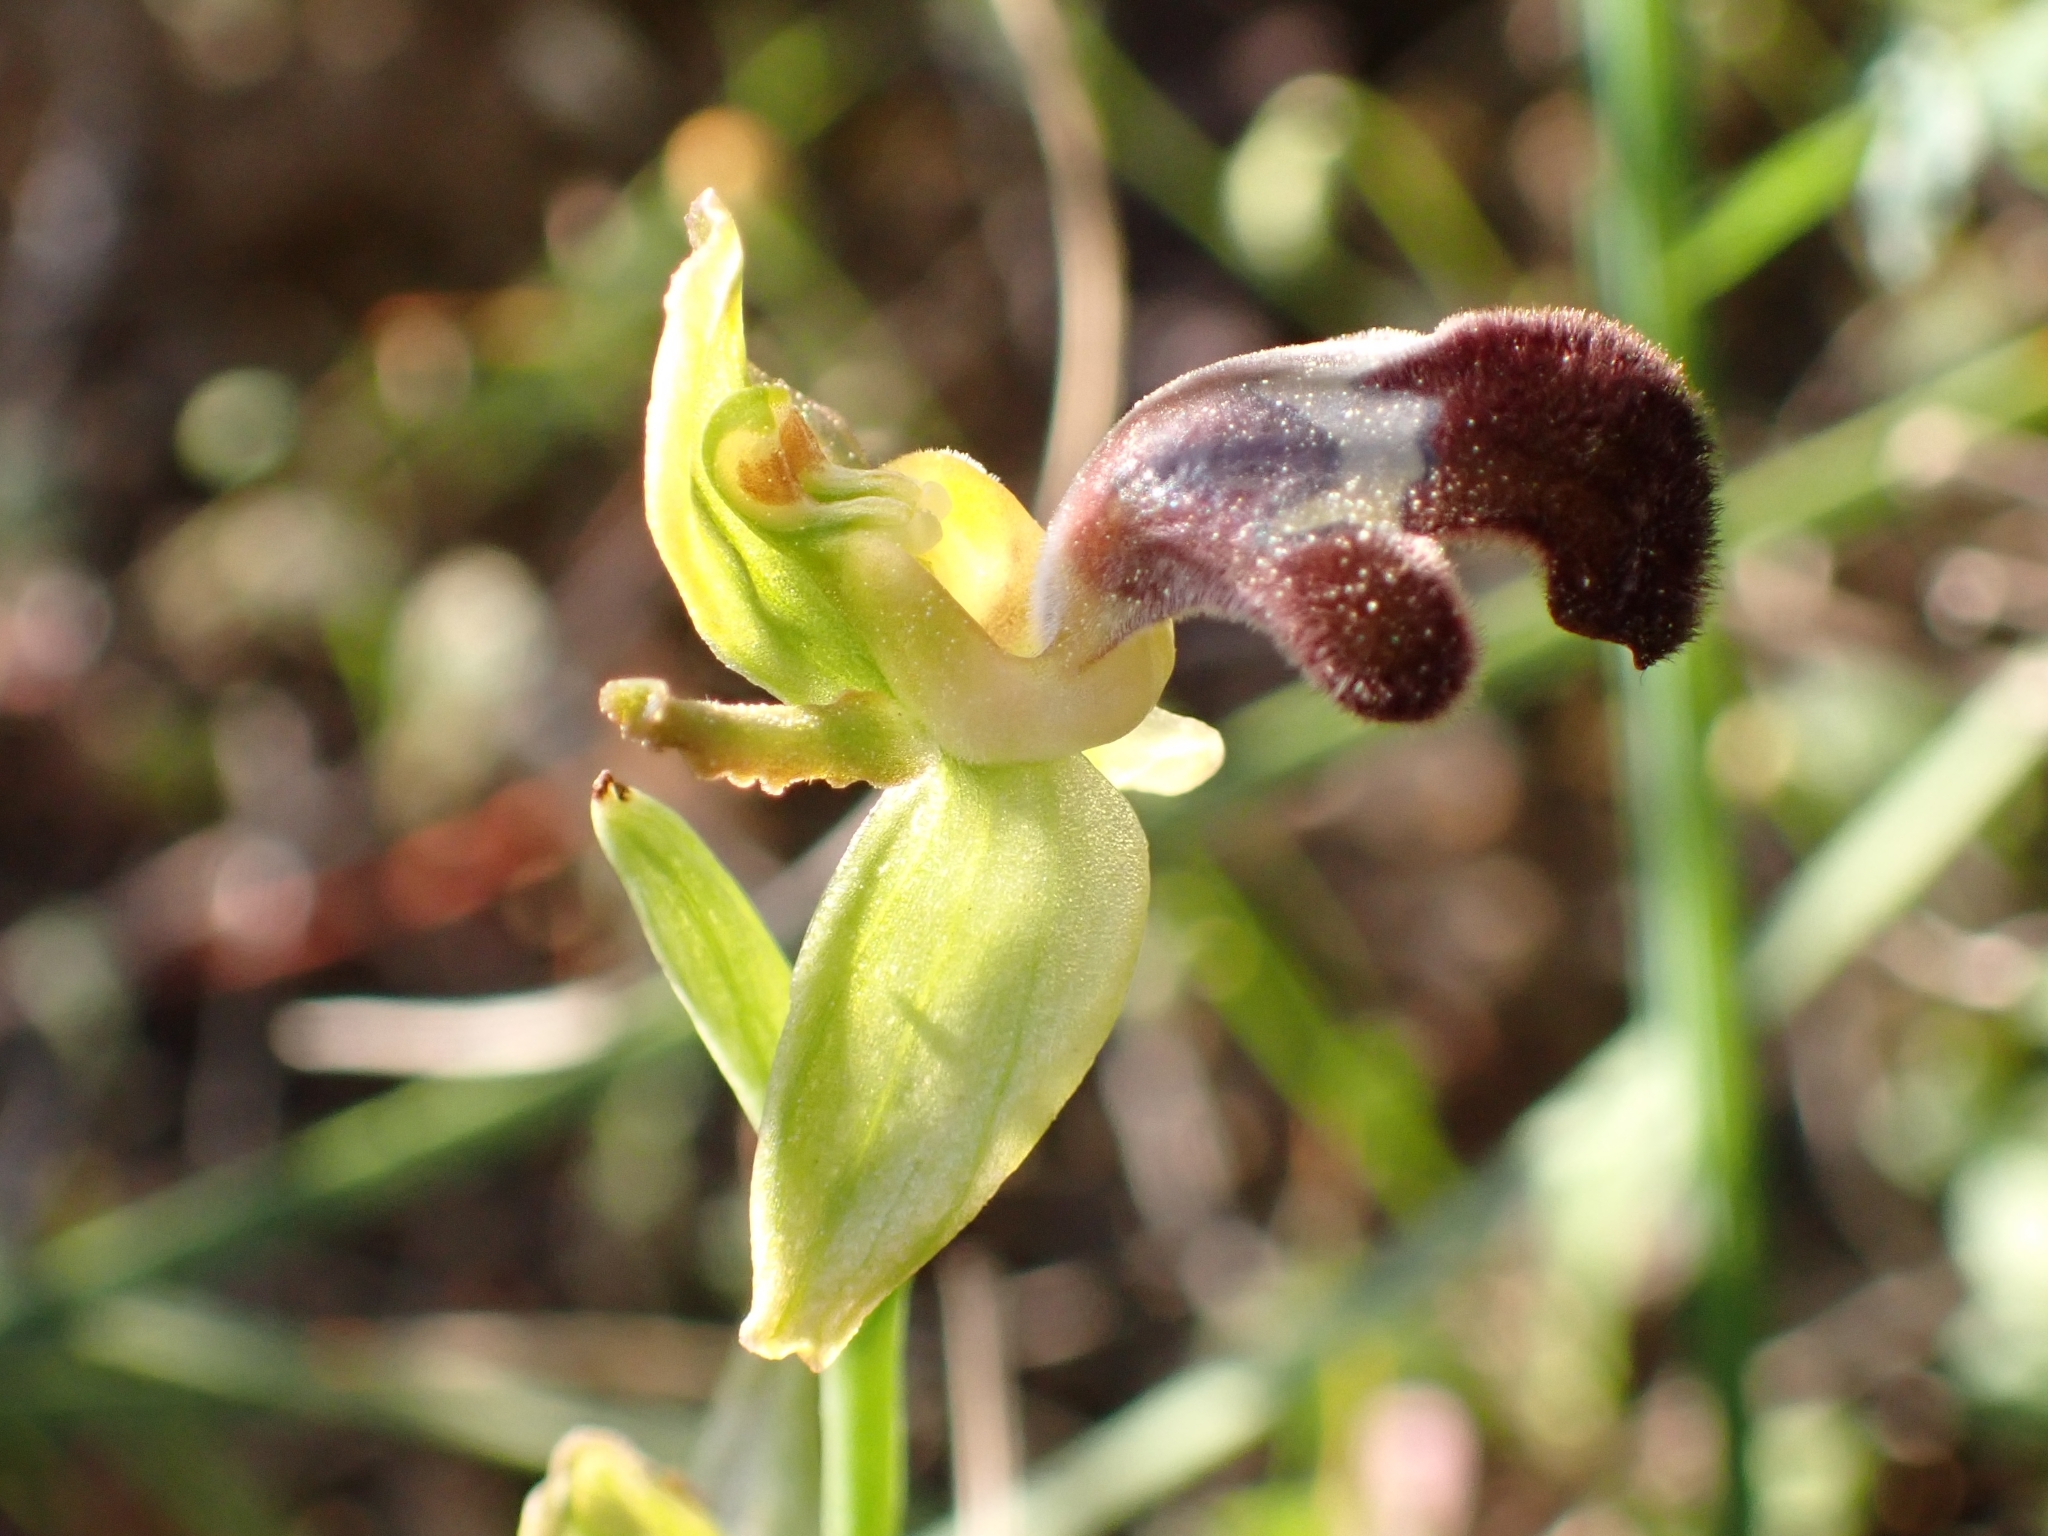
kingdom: Plantae
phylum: Tracheophyta
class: Liliopsida
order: Asparagales
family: Orchidaceae
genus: Ophrys
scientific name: Ophrys omegaifera
